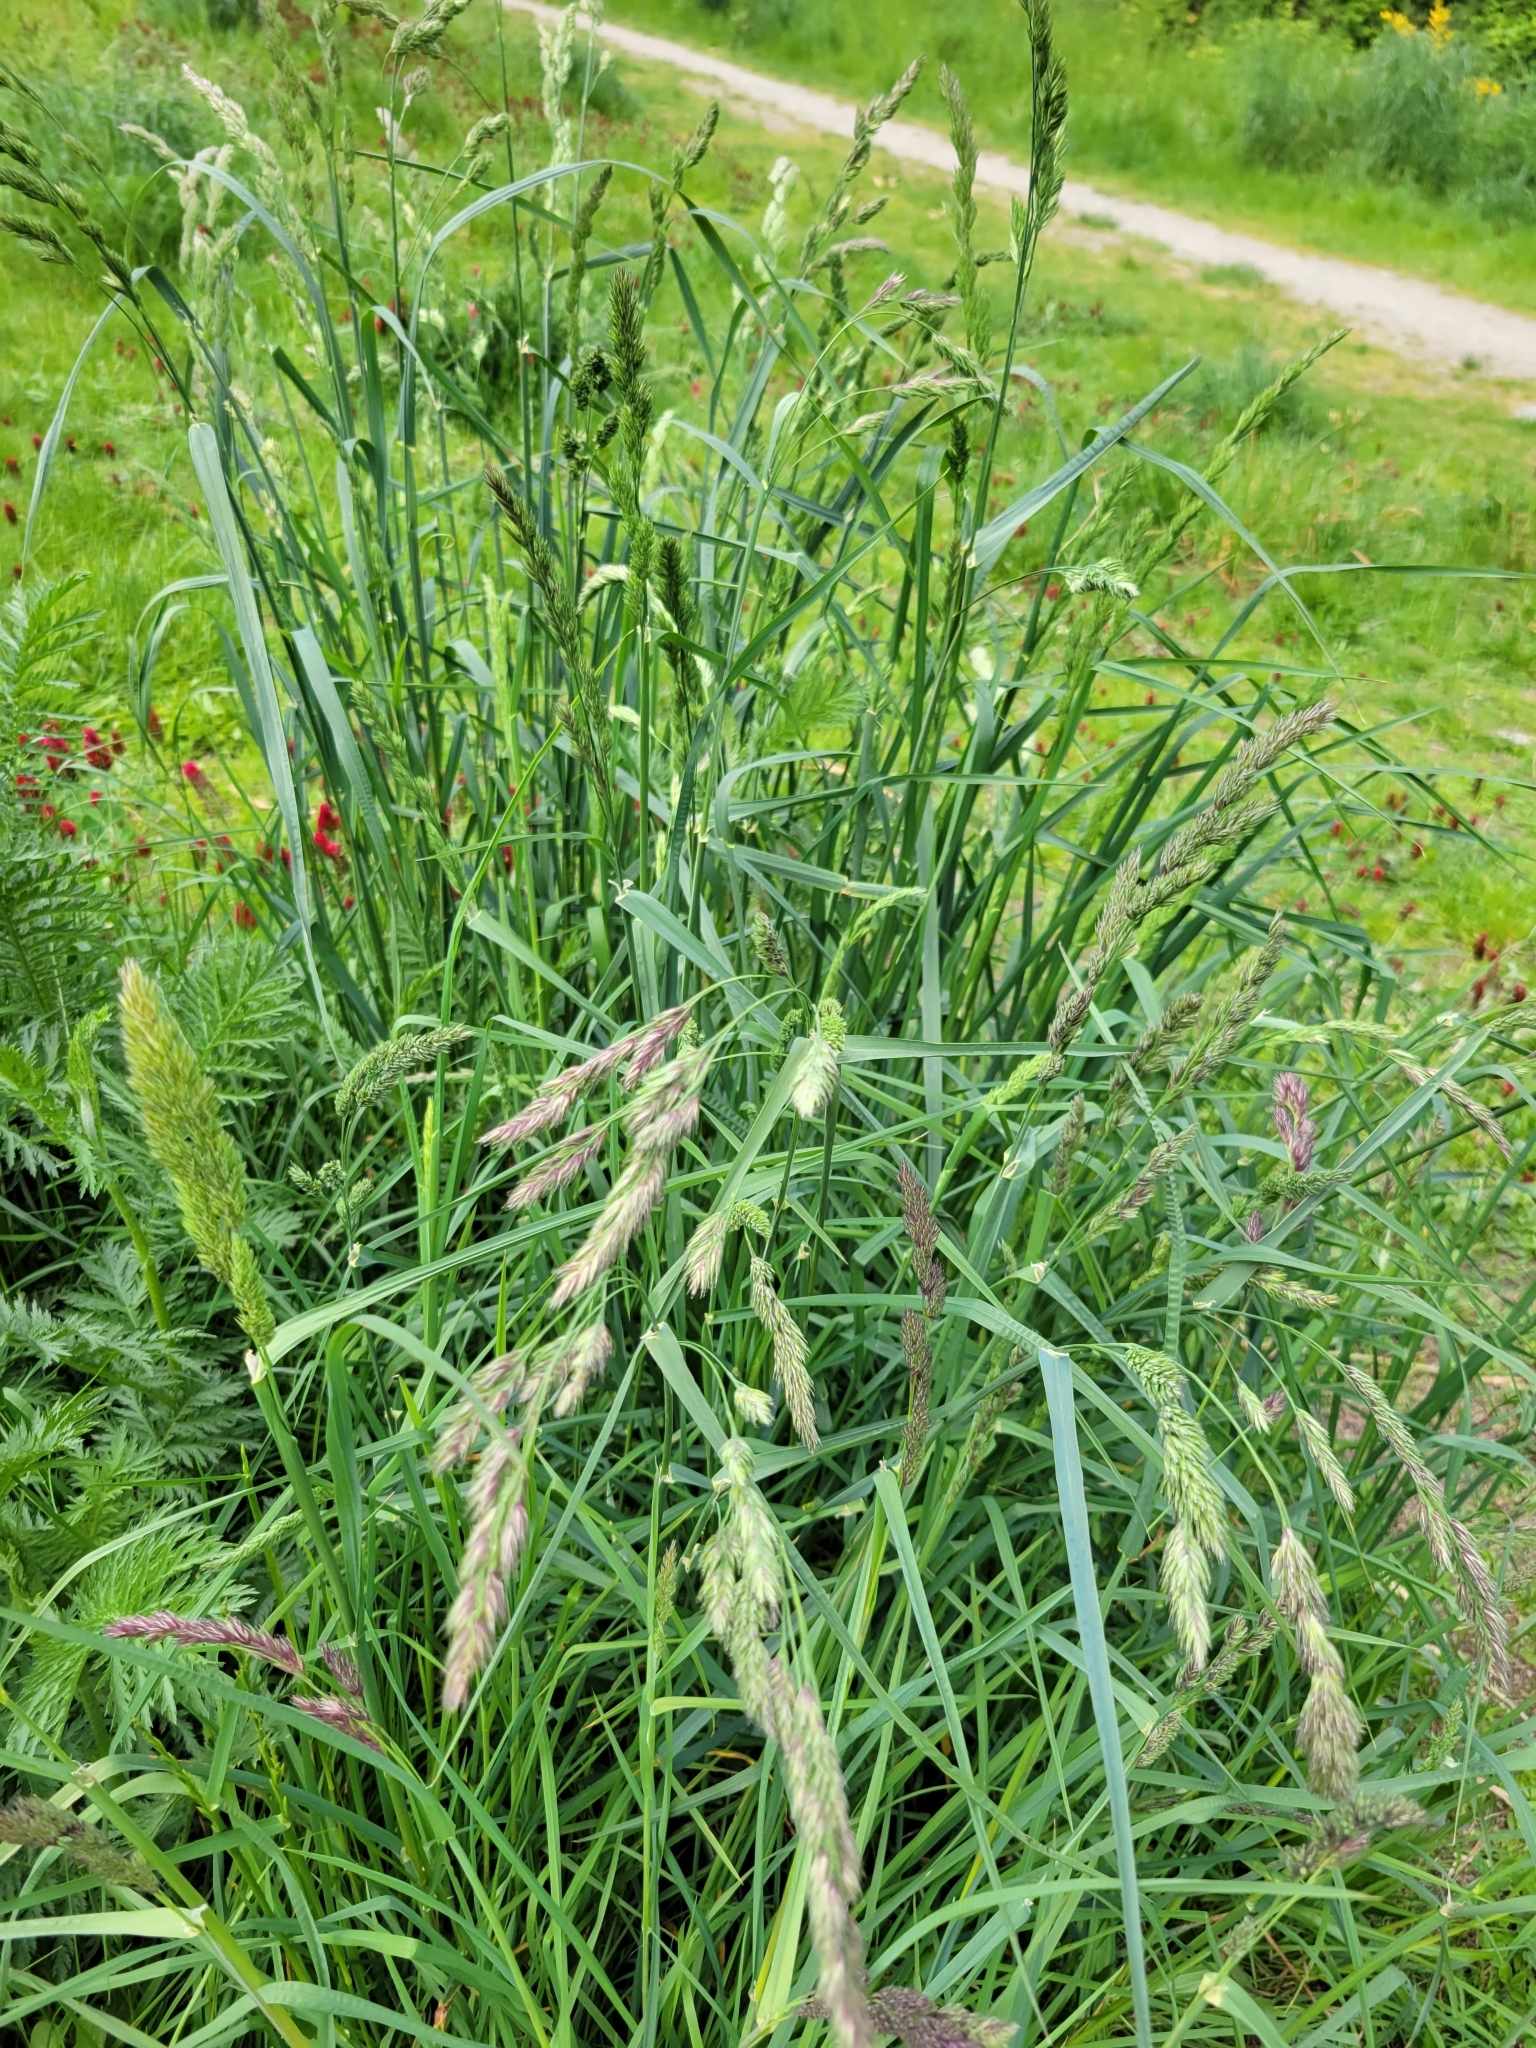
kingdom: Plantae
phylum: Tracheophyta
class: Liliopsida
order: Poales
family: Poaceae
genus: Dactylis
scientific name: Dactylis glomerata
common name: Orchardgrass
